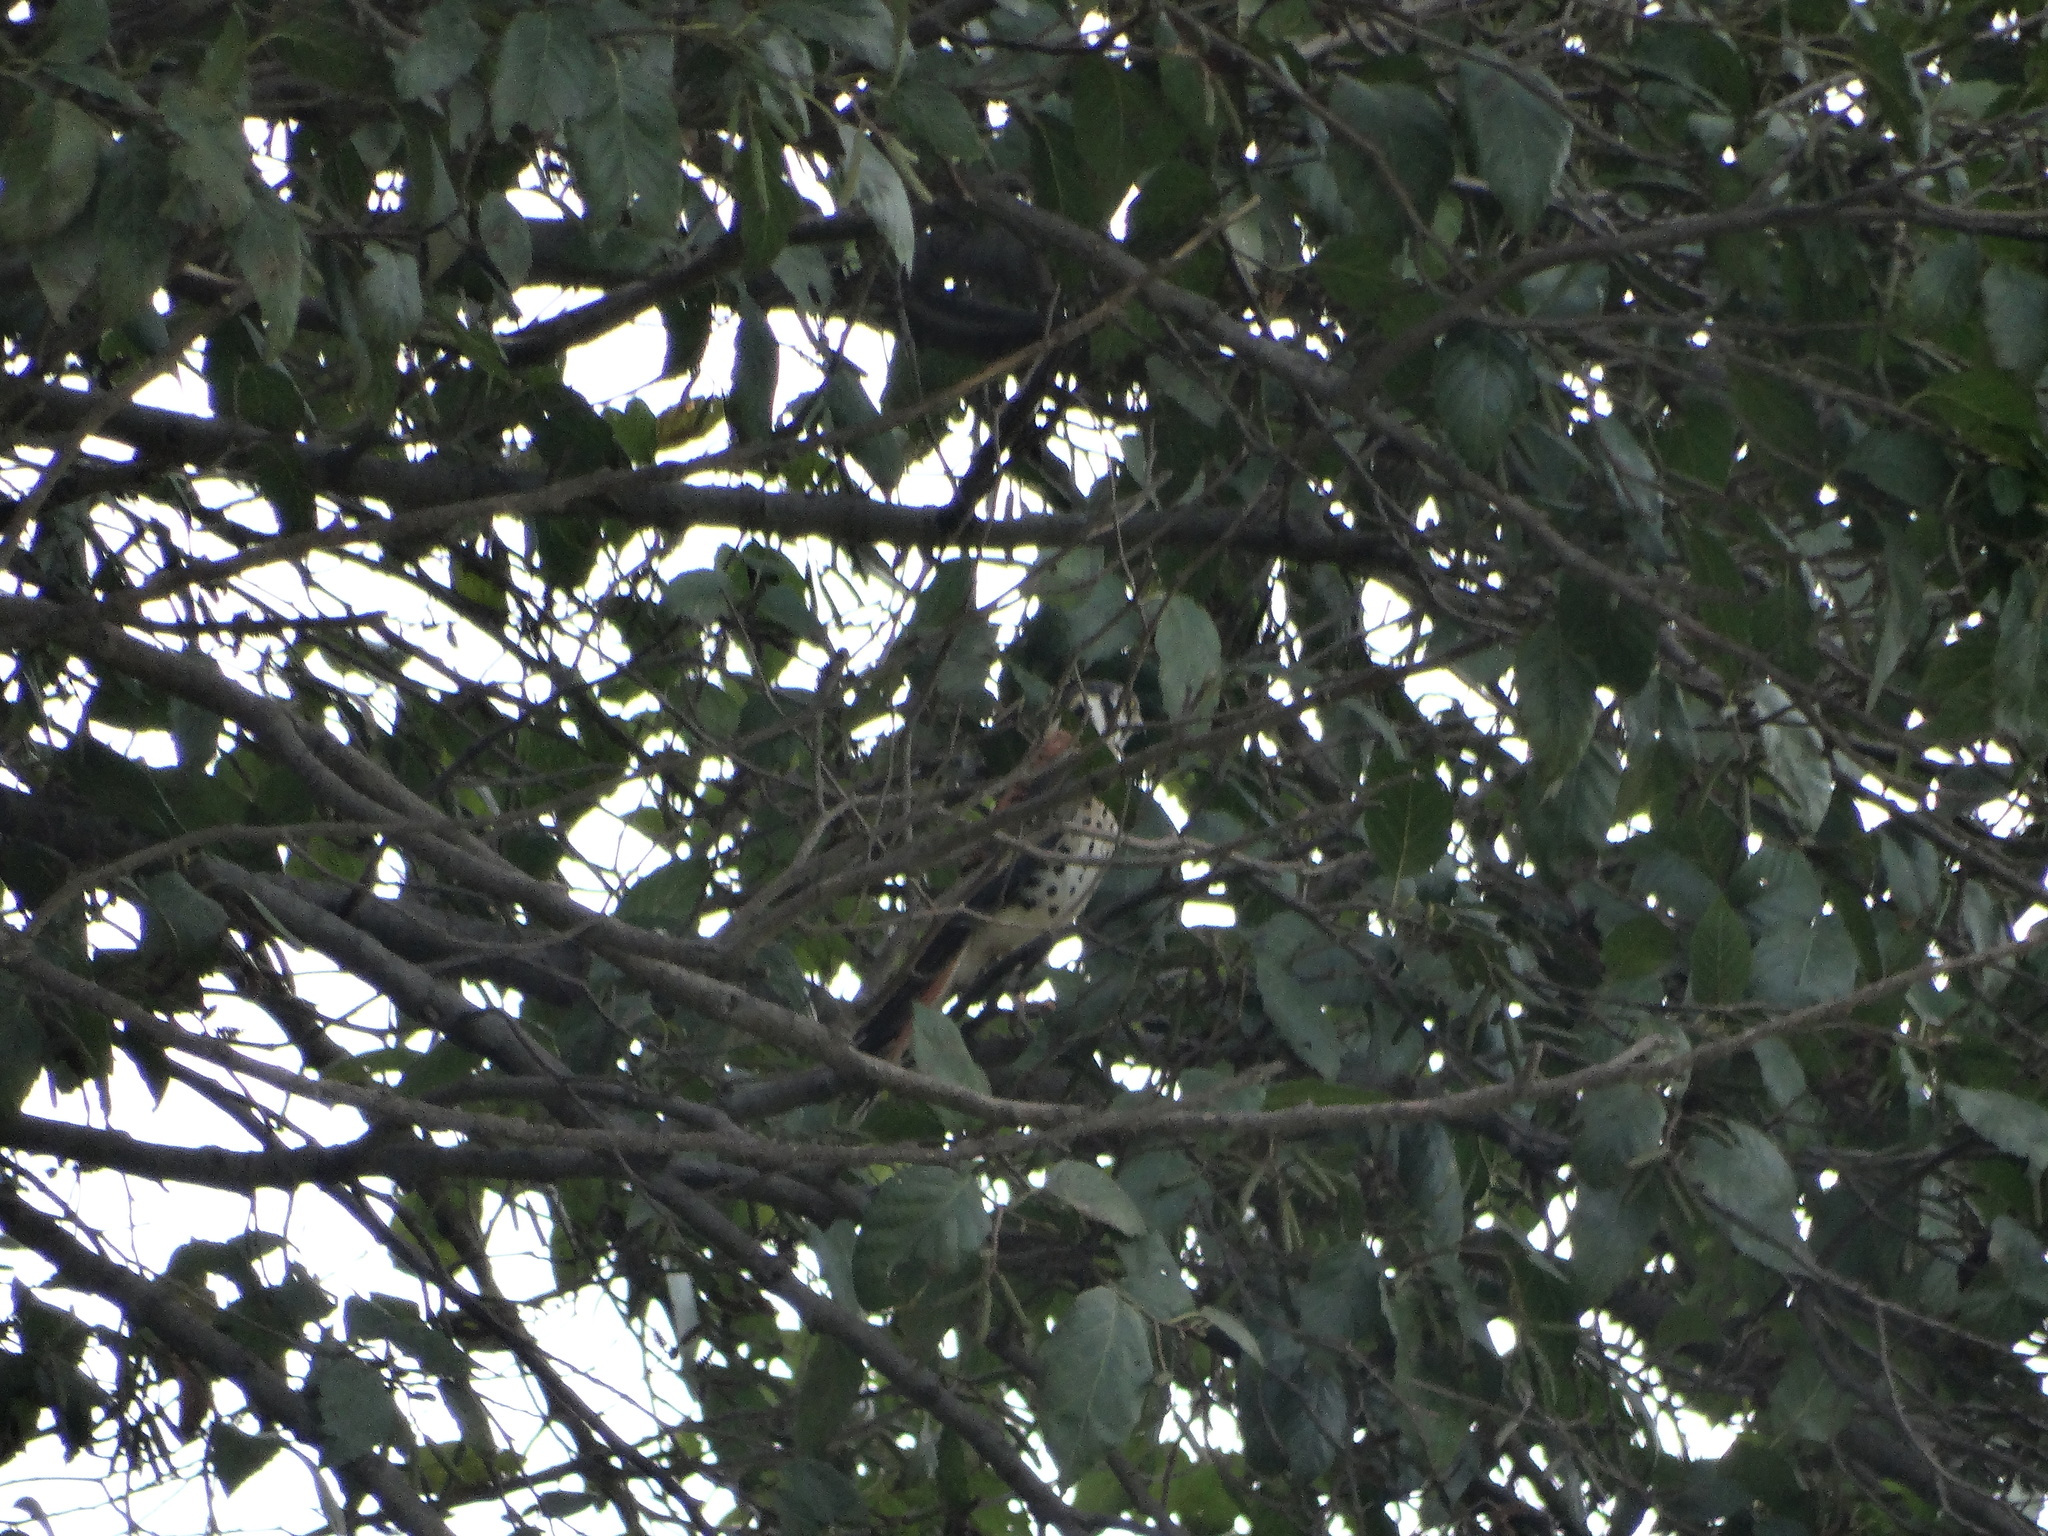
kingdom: Animalia
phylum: Chordata
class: Aves
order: Falconiformes
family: Falconidae
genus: Falco
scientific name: Falco sparverius
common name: American kestrel
